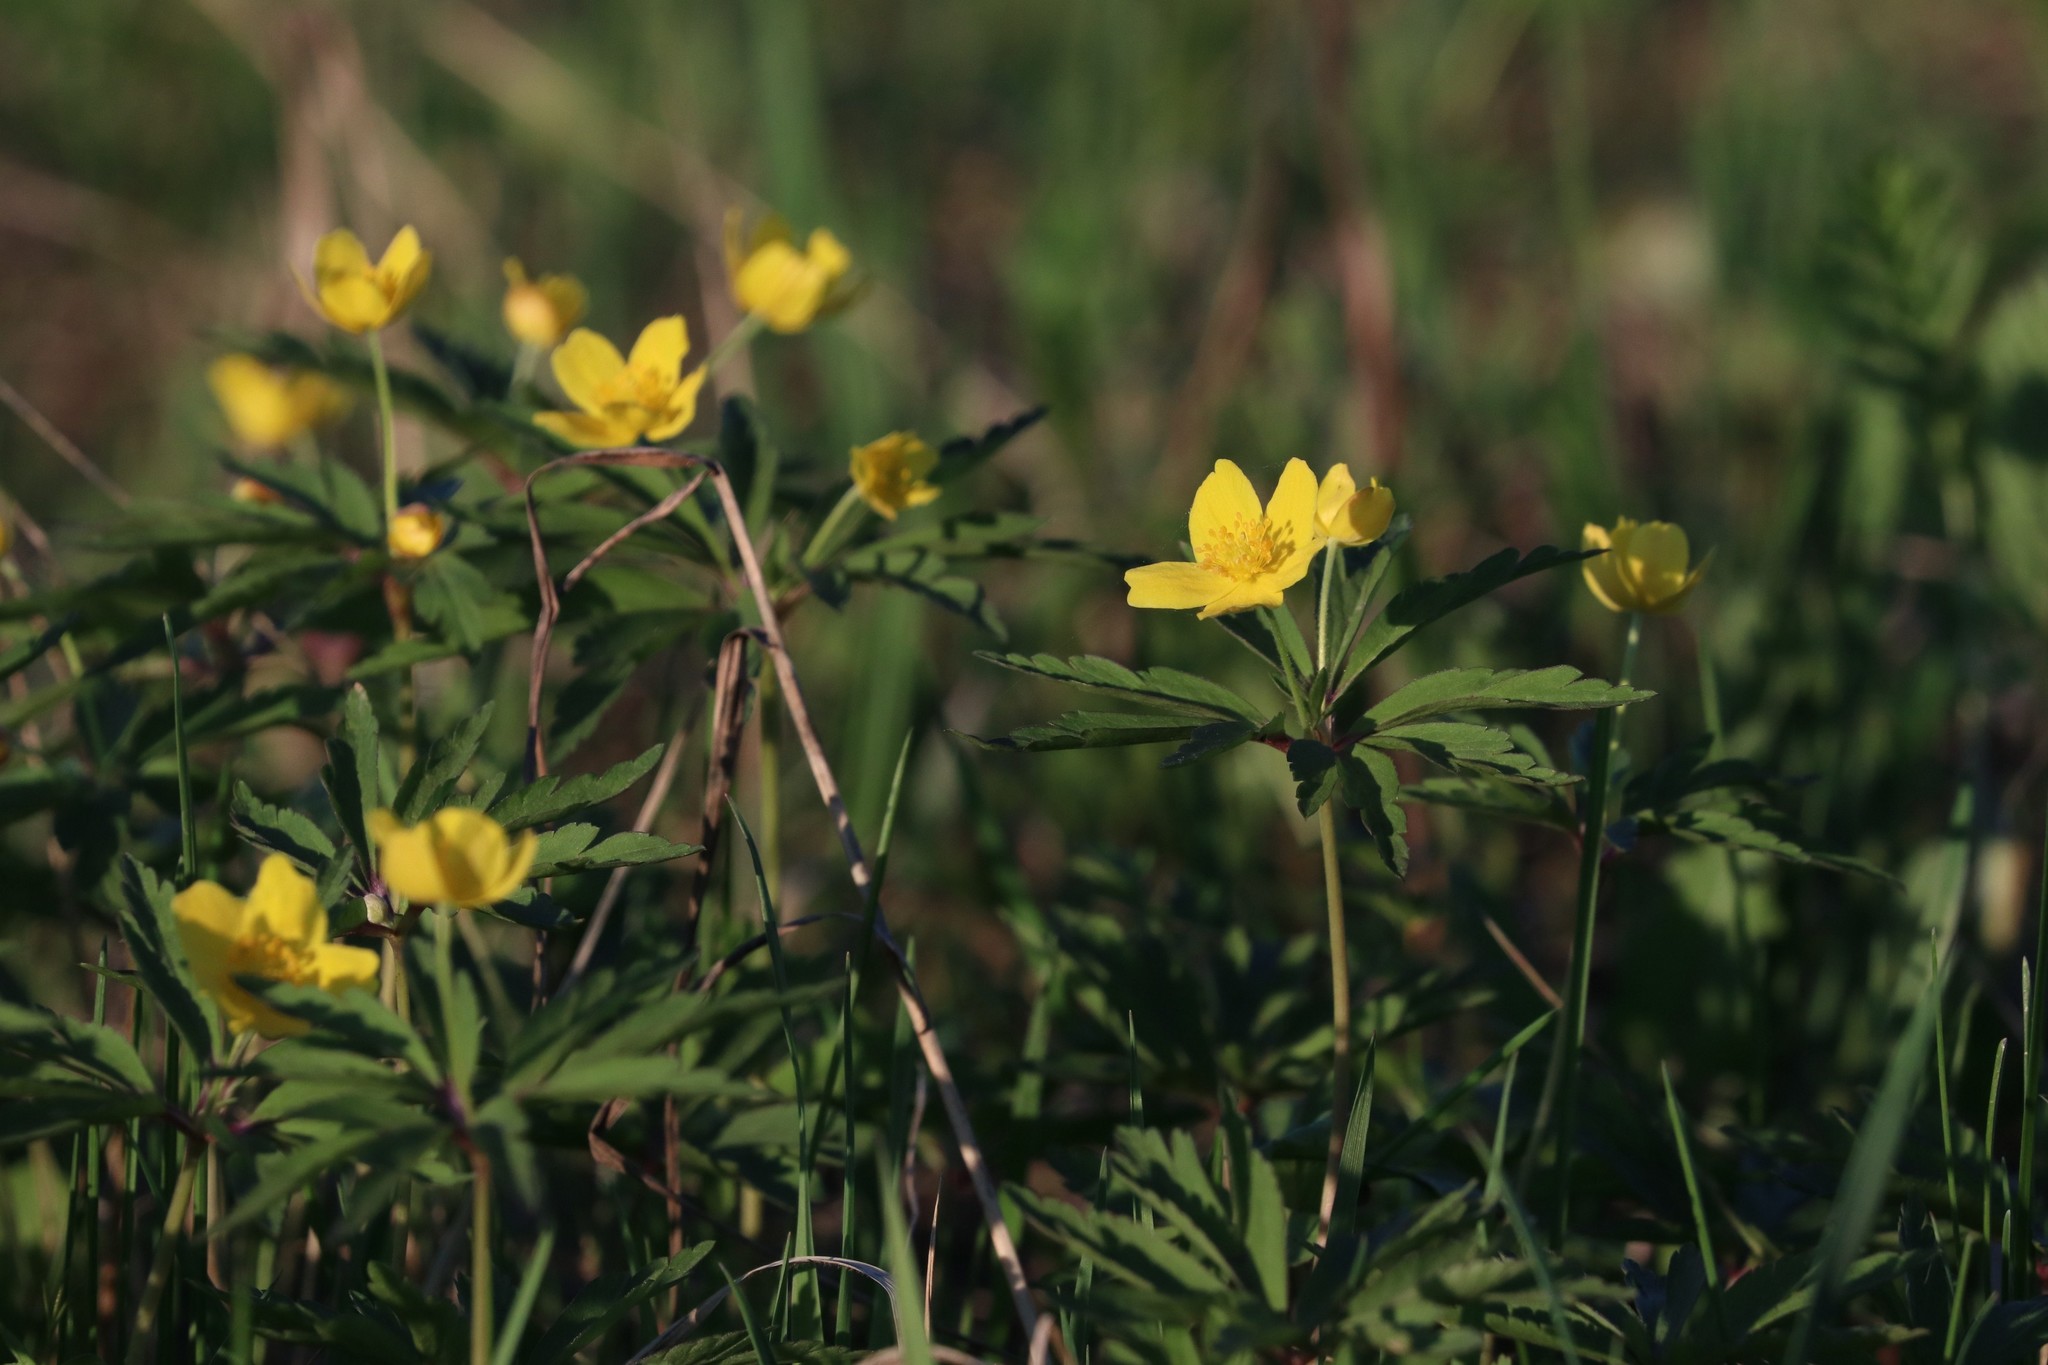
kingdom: Plantae
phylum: Tracheophyta
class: Magnoliopsida
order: Ranunculales
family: Ranunculaceae
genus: Anemone
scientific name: Anemone ranunculoides
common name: Yellow anemone
